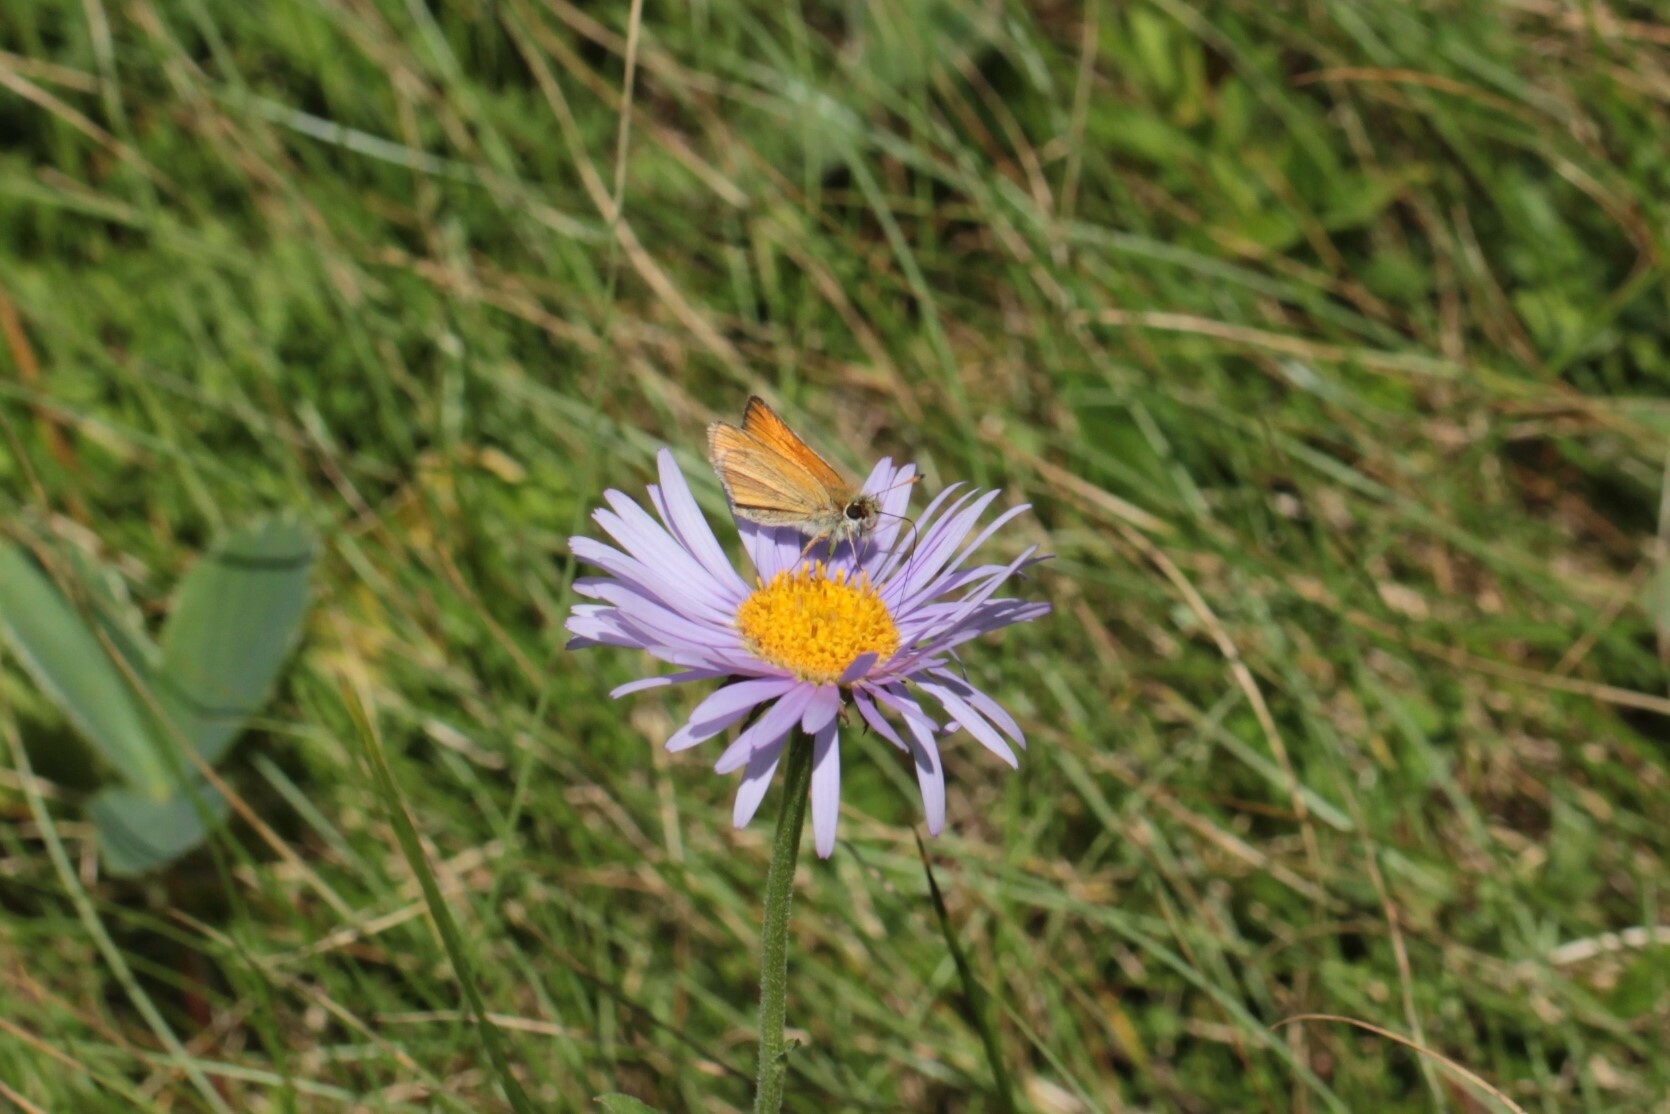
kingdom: Animalia
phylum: Arthropoda
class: Insecta
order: Lepidoptera
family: Hesperiidae
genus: Thymelicus
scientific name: Thymelicus lineola
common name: Essex skipper
